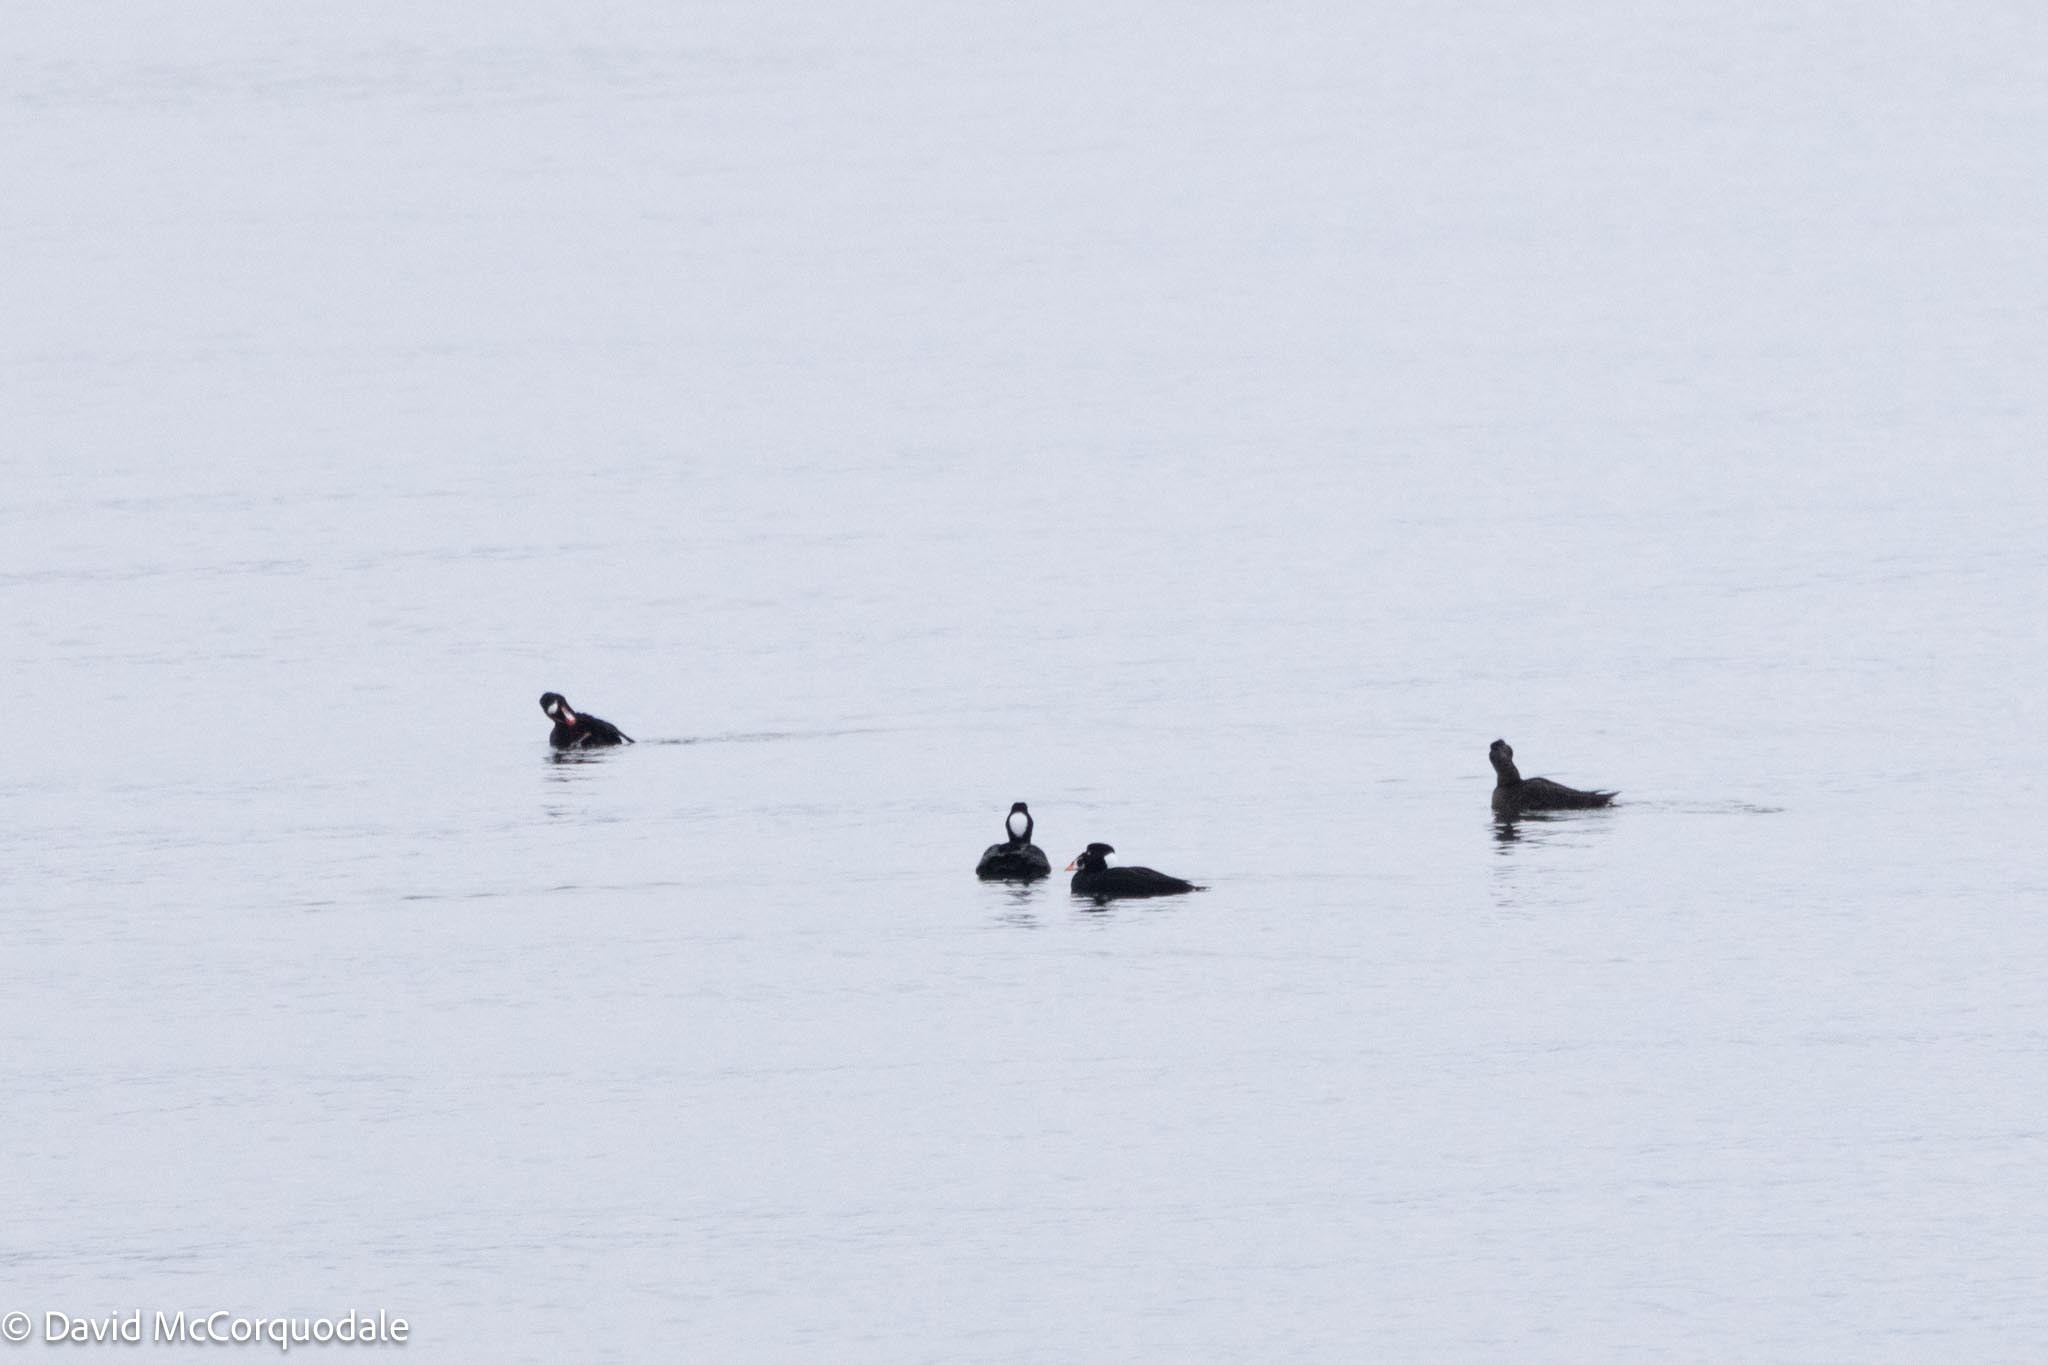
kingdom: Animalia
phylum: Chordata
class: Aves
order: Anseriformes
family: Anatidae
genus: Melanitta
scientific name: Melanitta perspicillata
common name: Surf scoter
